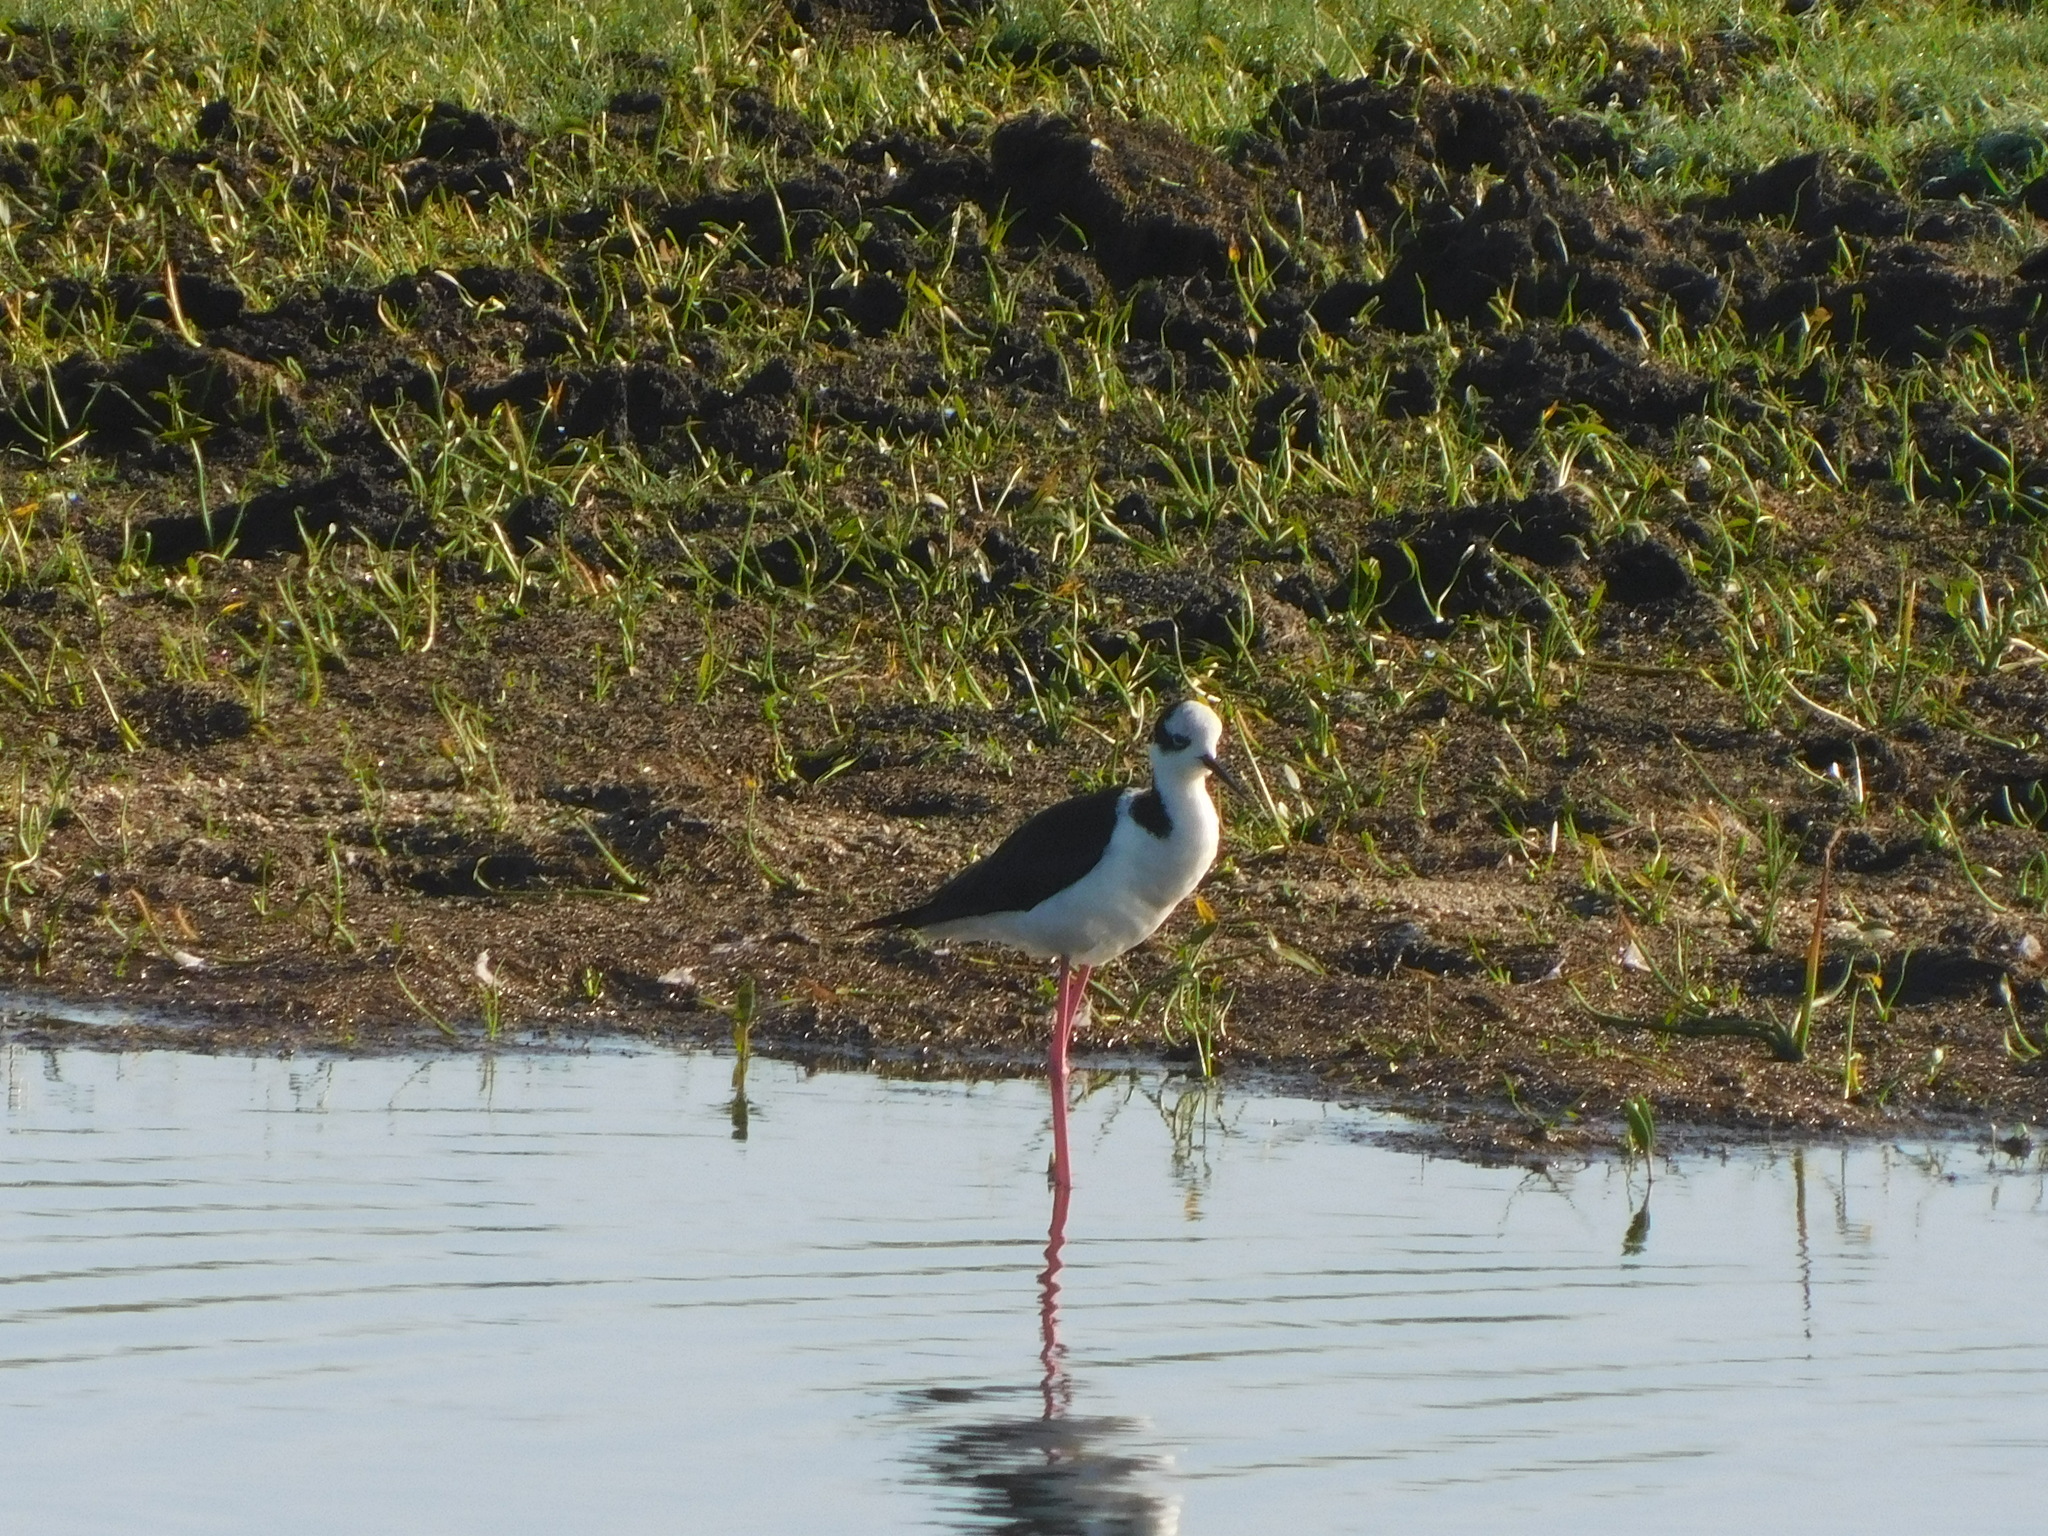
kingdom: Animalia
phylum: Chordata
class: Aves
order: Charadriiformes
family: Recurvirostridae
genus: Himantopus
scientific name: Himantopus mexicanus
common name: Black-necked stilt
